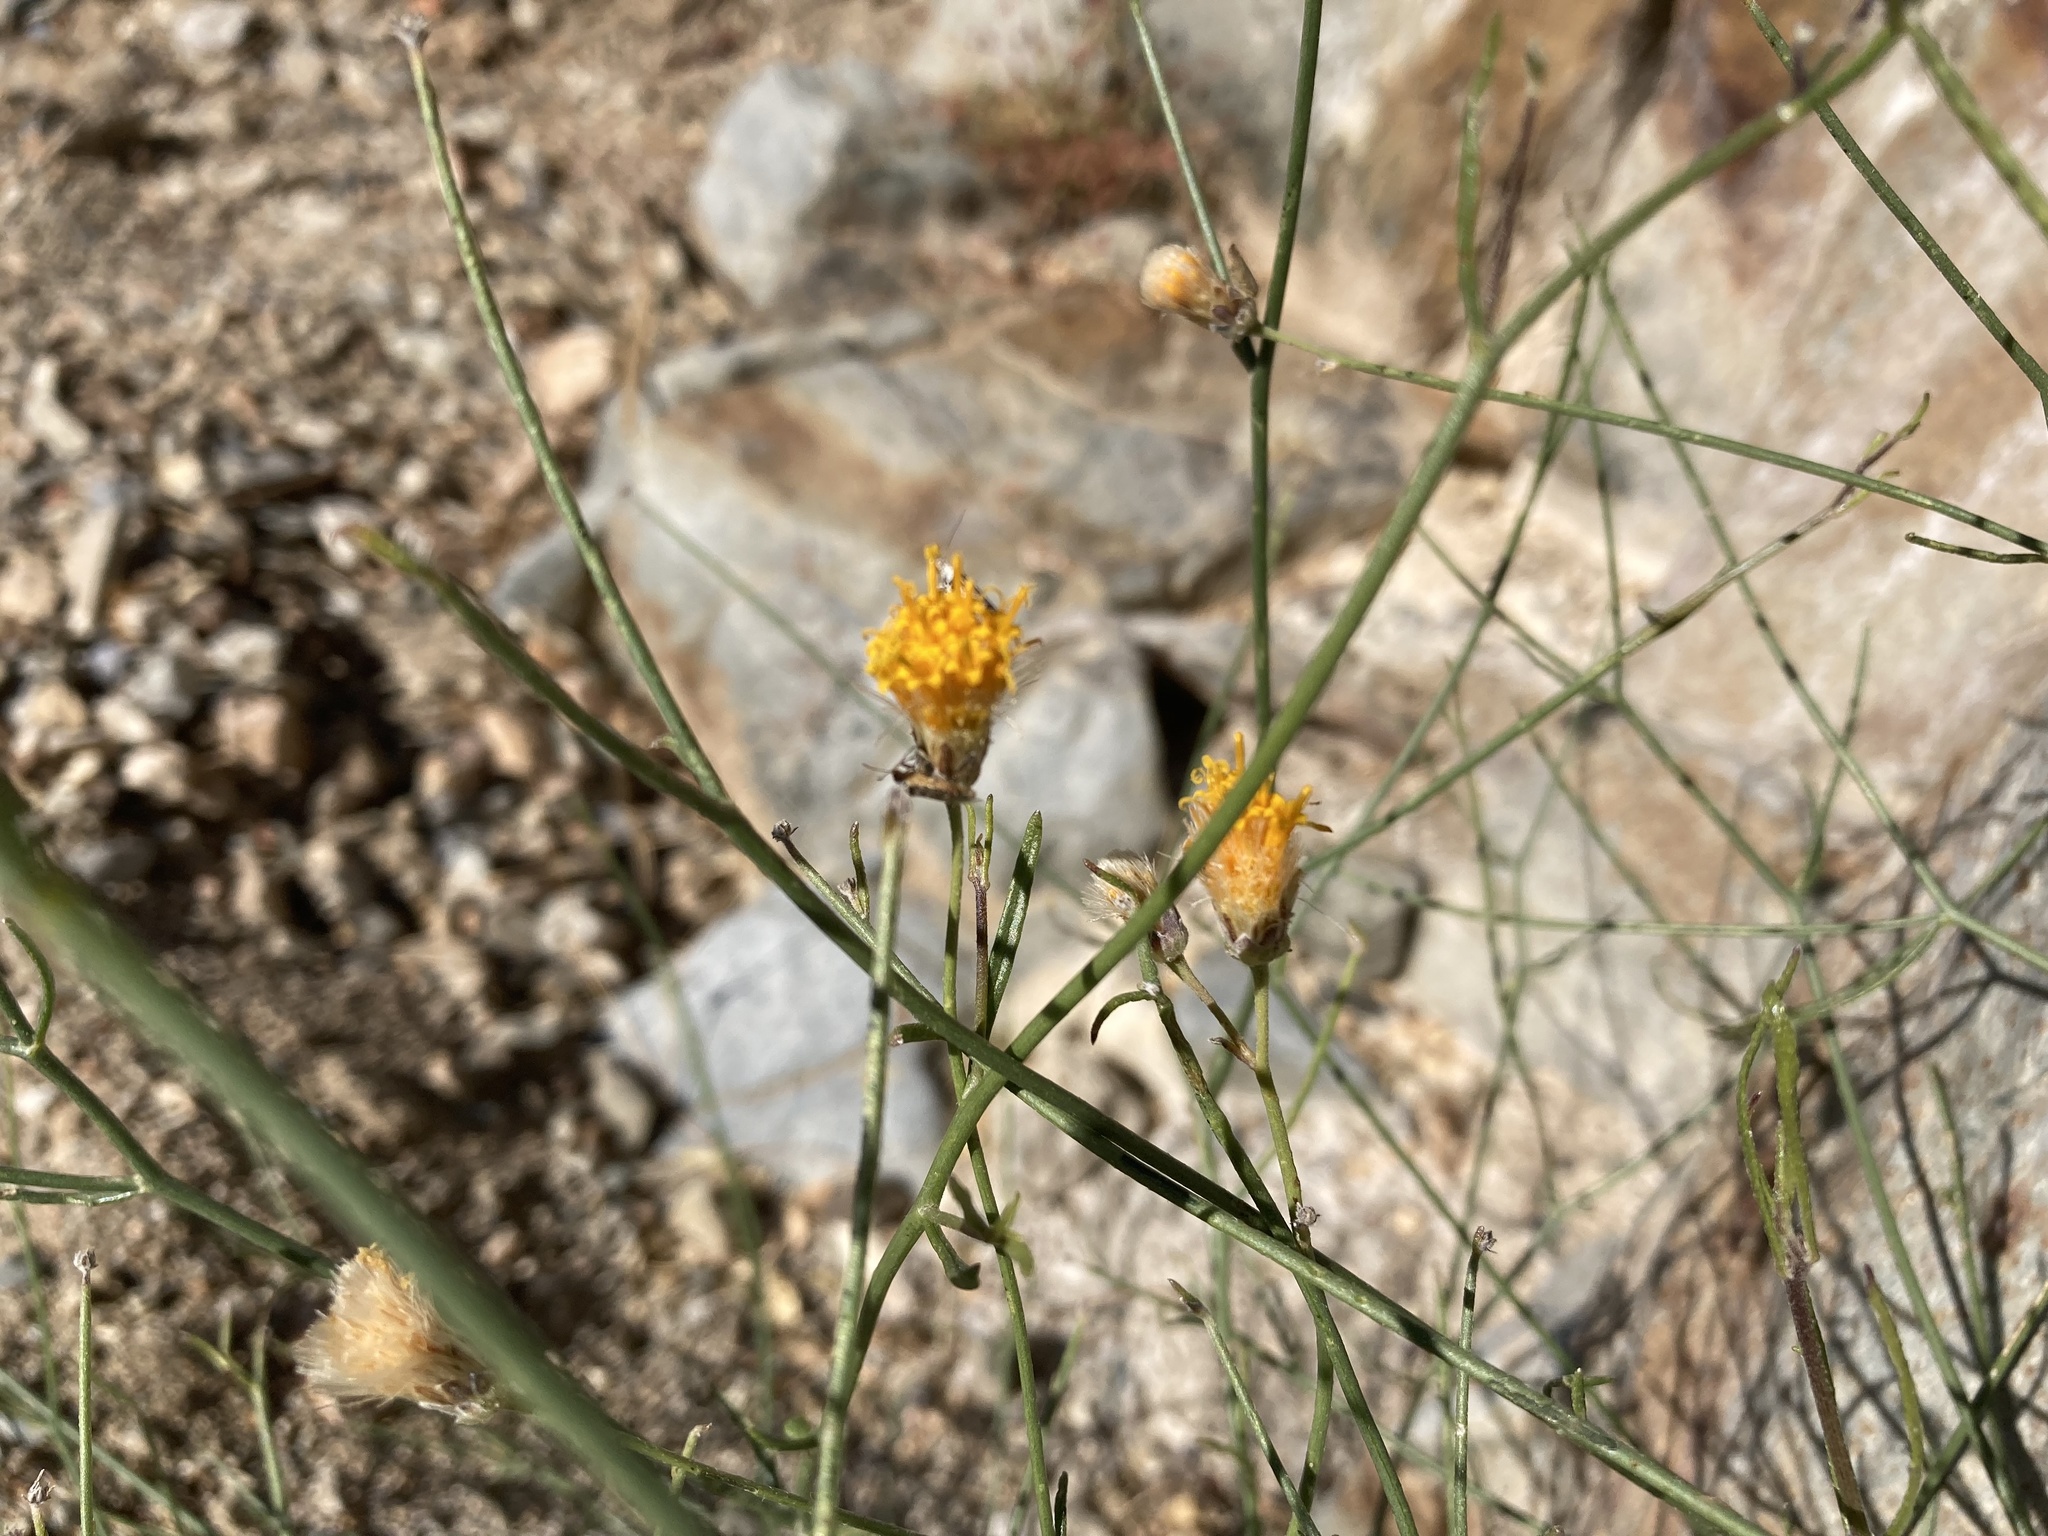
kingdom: Plantae
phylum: Tracheophyta
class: Magnoliopsida
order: Asterales
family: Asteraceae
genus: Bebbia
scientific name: Bebbia juncea
